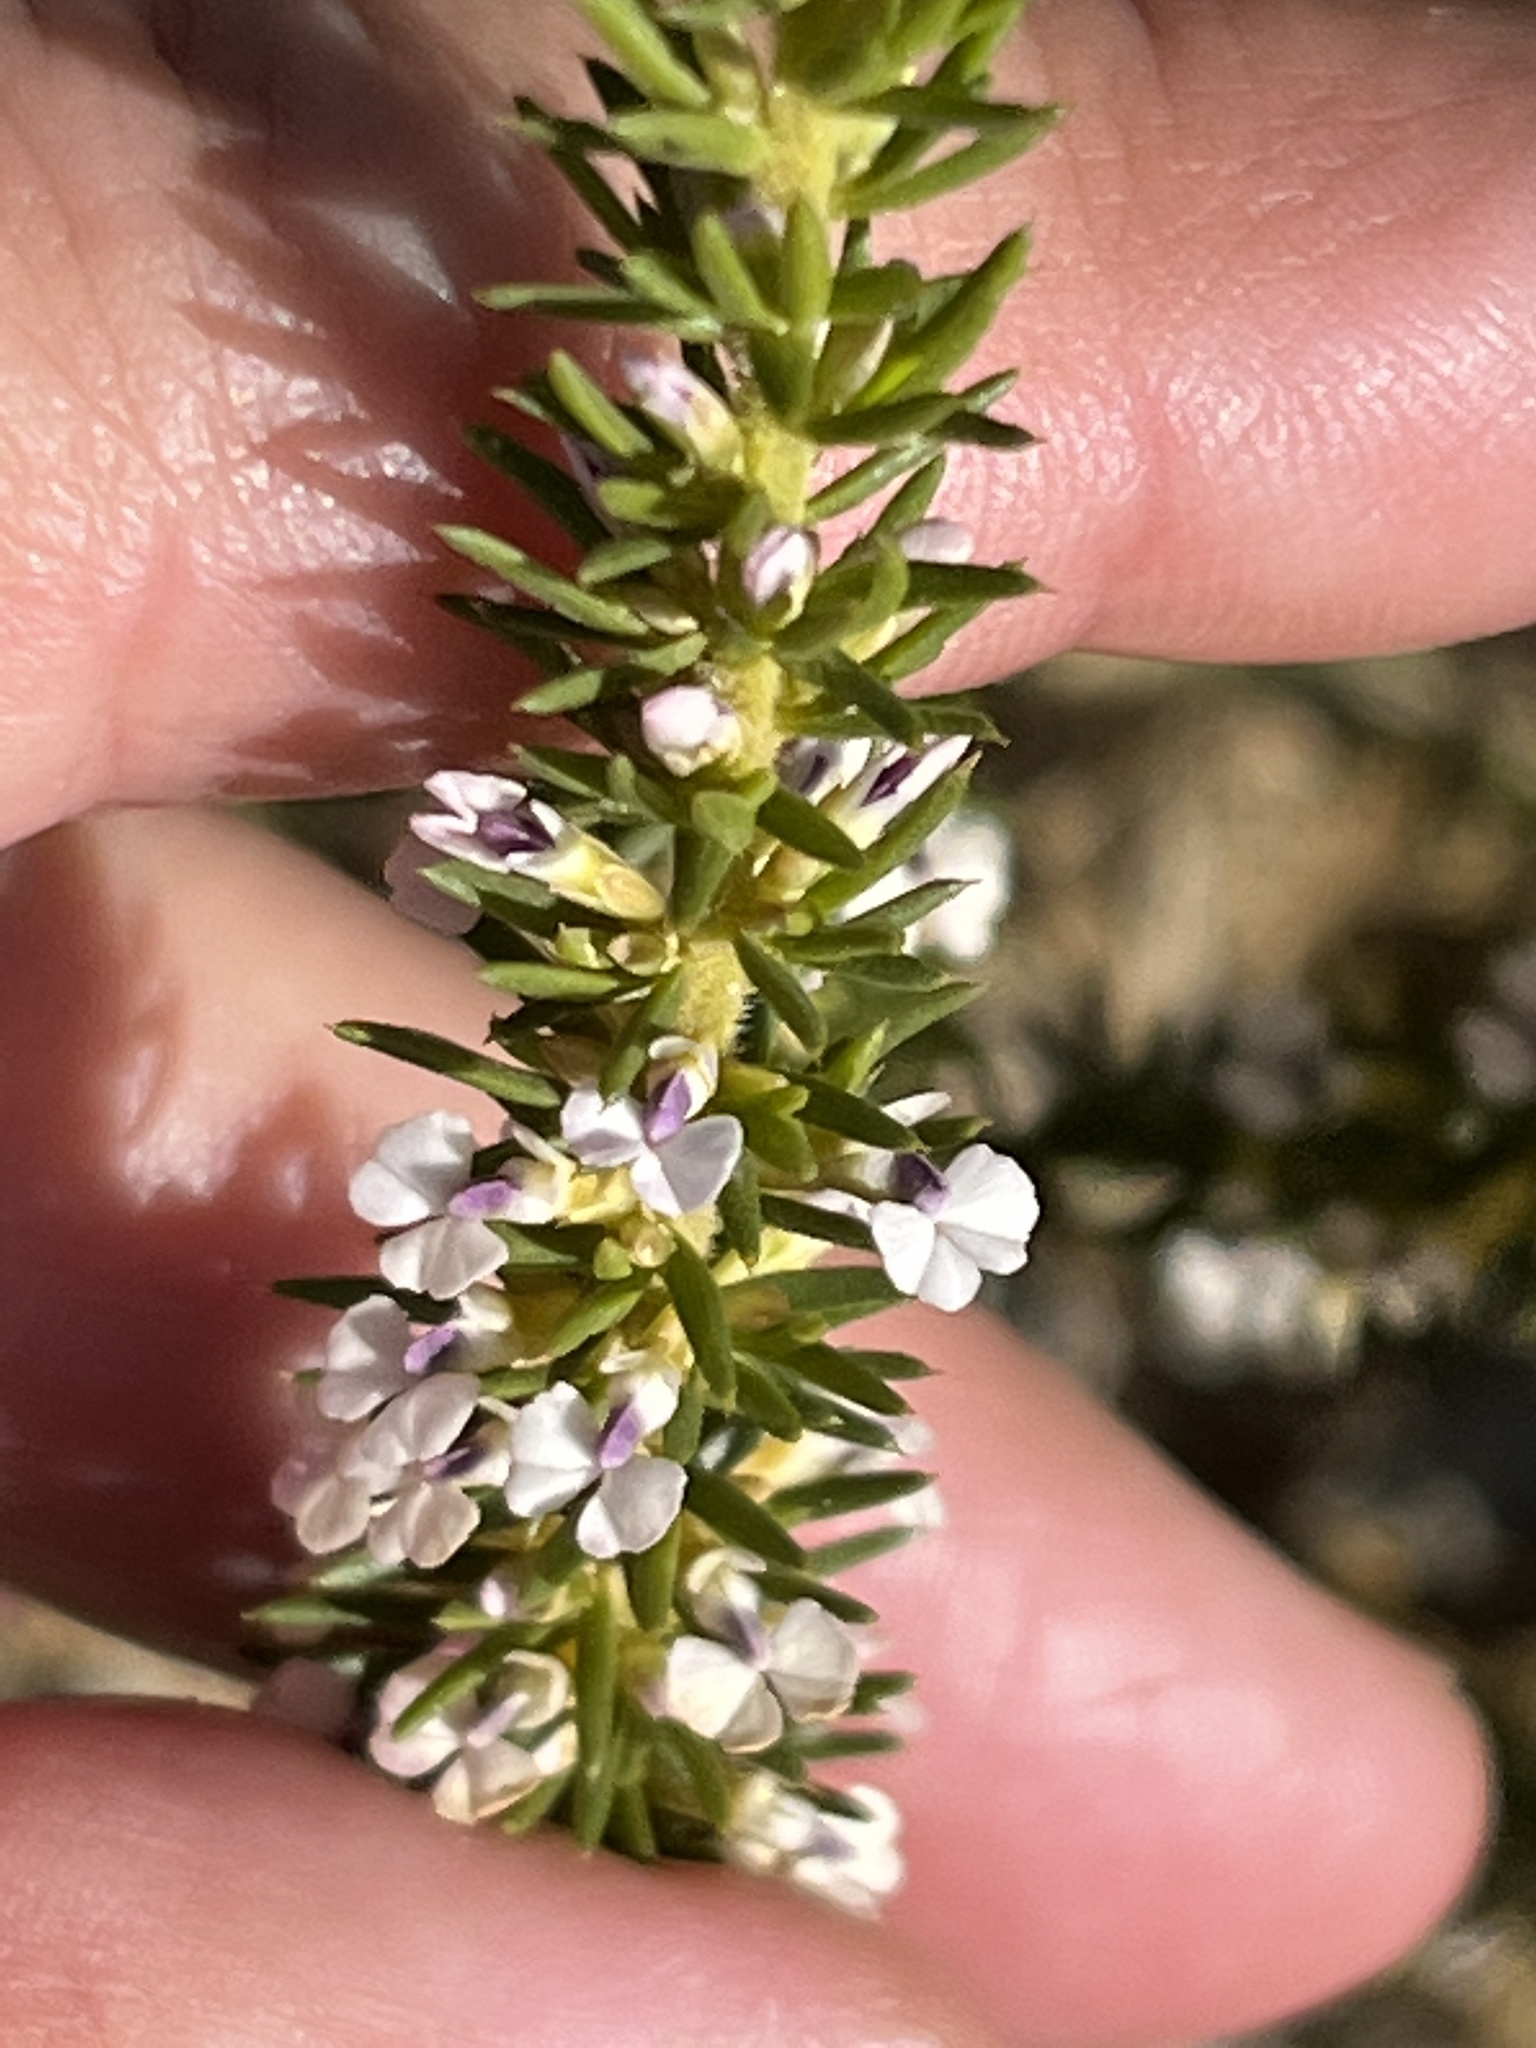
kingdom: Plantae
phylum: Tracheophyta
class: Magnoliopsida
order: Fabales
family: Polygalaceae
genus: Muraltia
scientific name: Muraltia salsolacea
